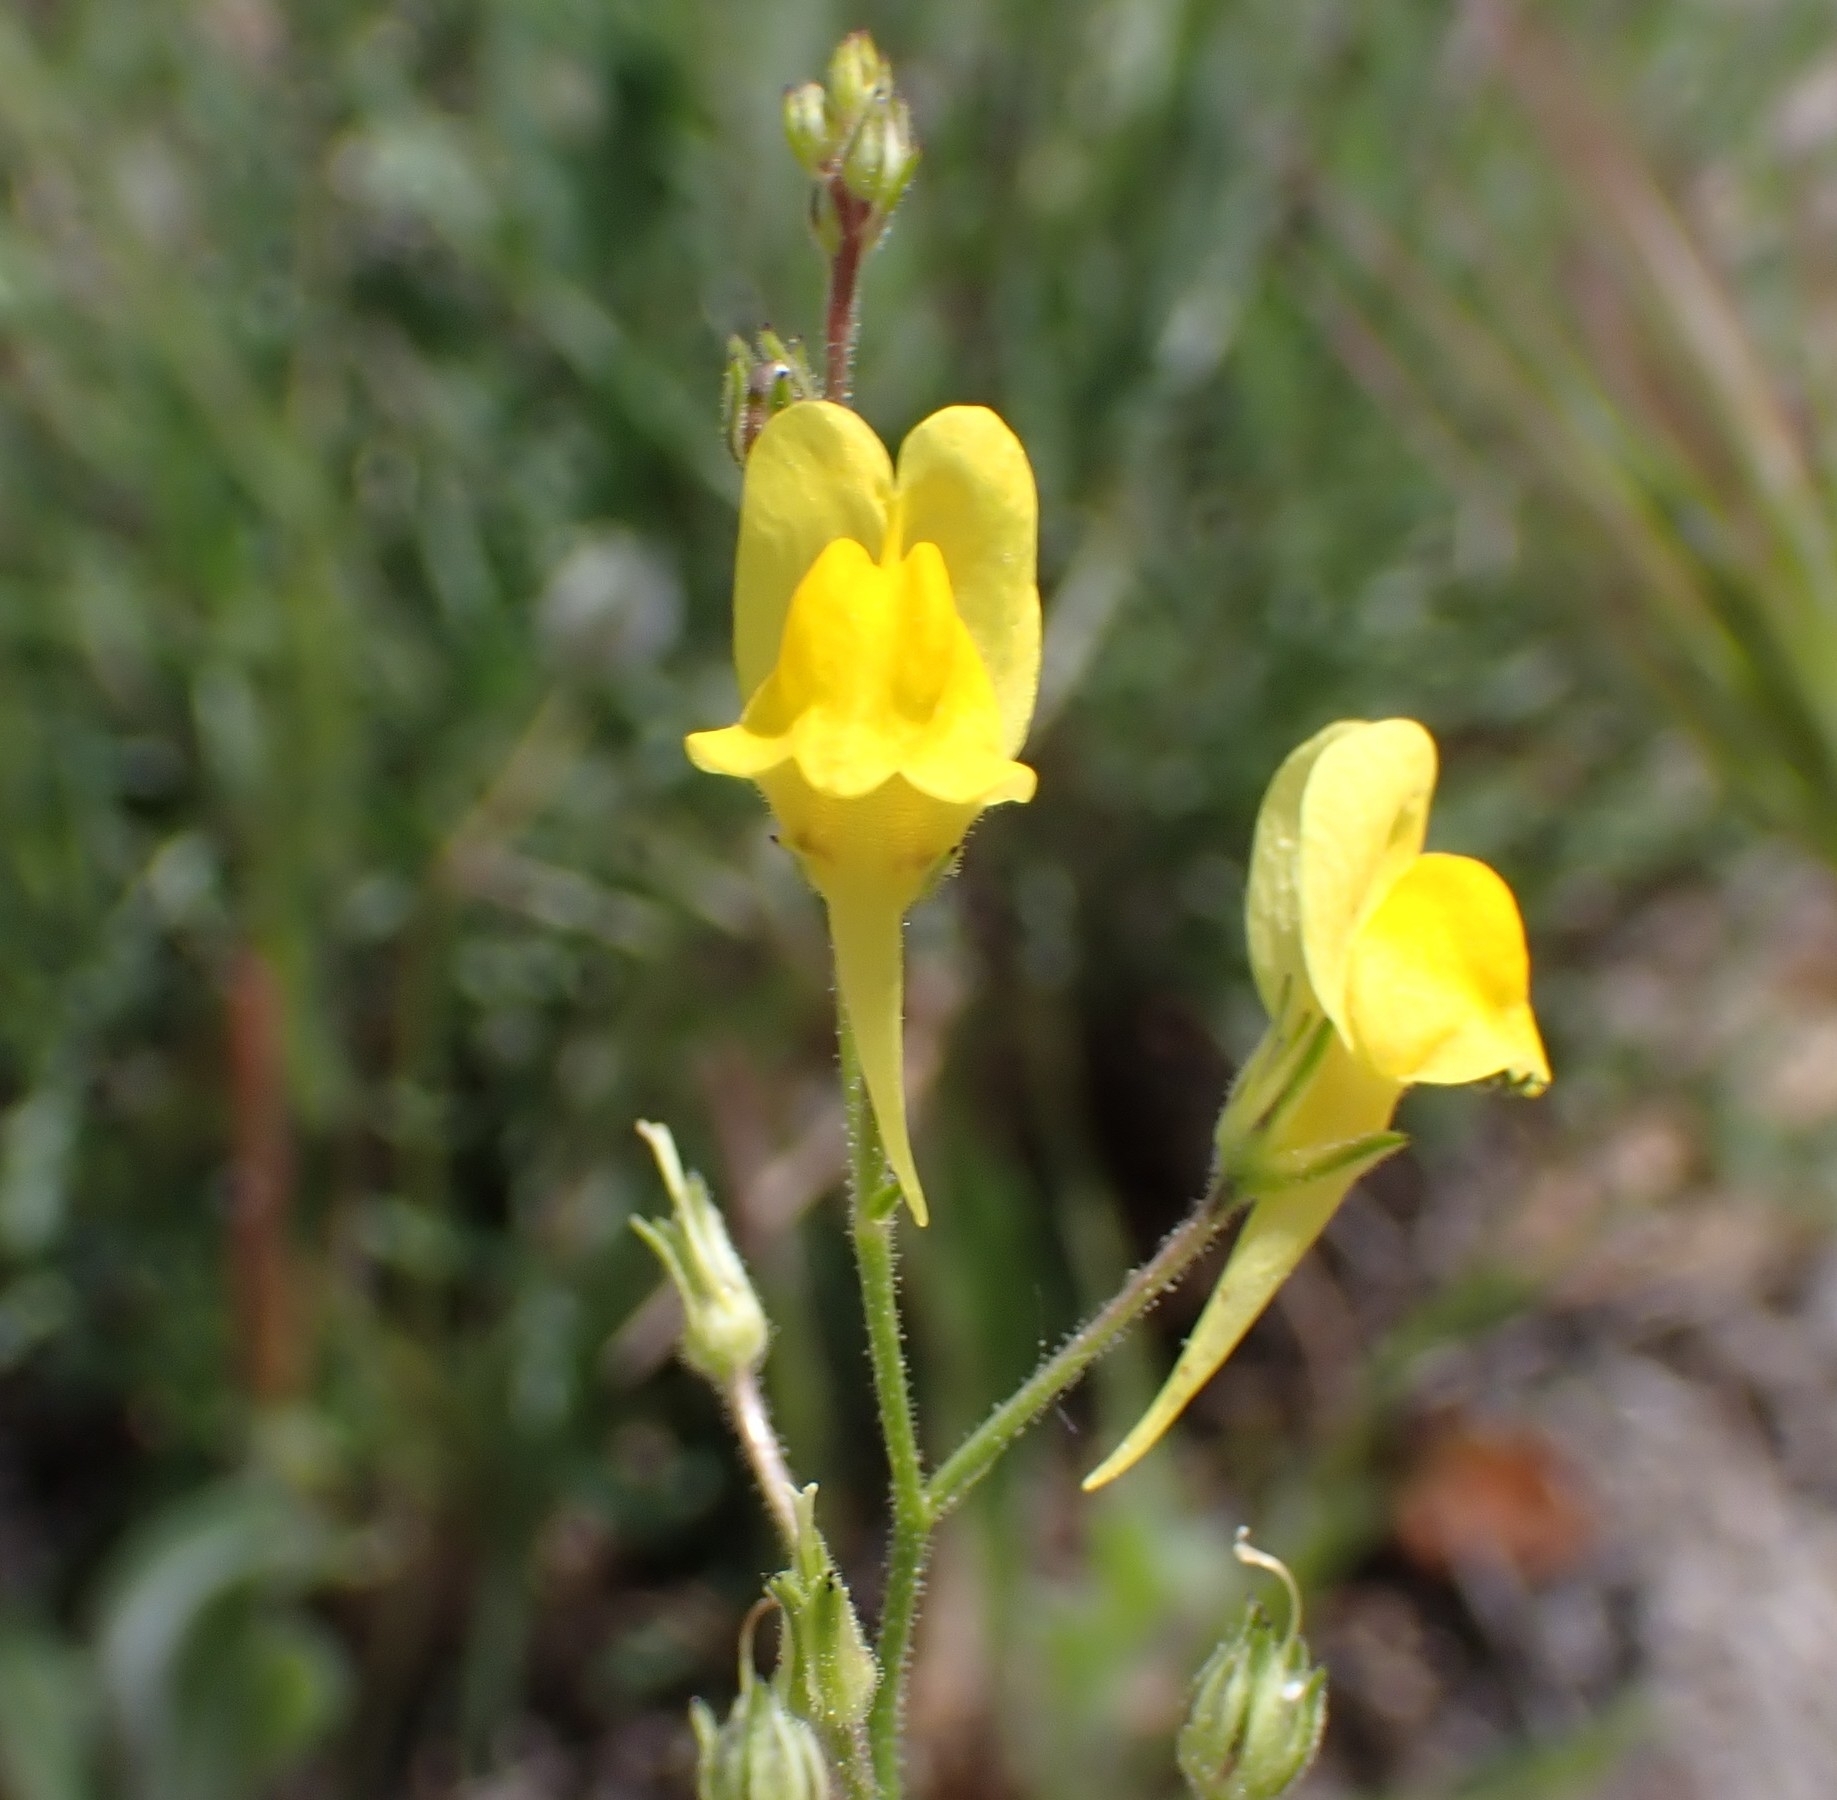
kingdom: Plantae
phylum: Tracheophyta
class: Magnoliopsida
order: Lamiales
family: Plantaginaceae
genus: Linaria
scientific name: Linaria spartea
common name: Ballast toadflax
